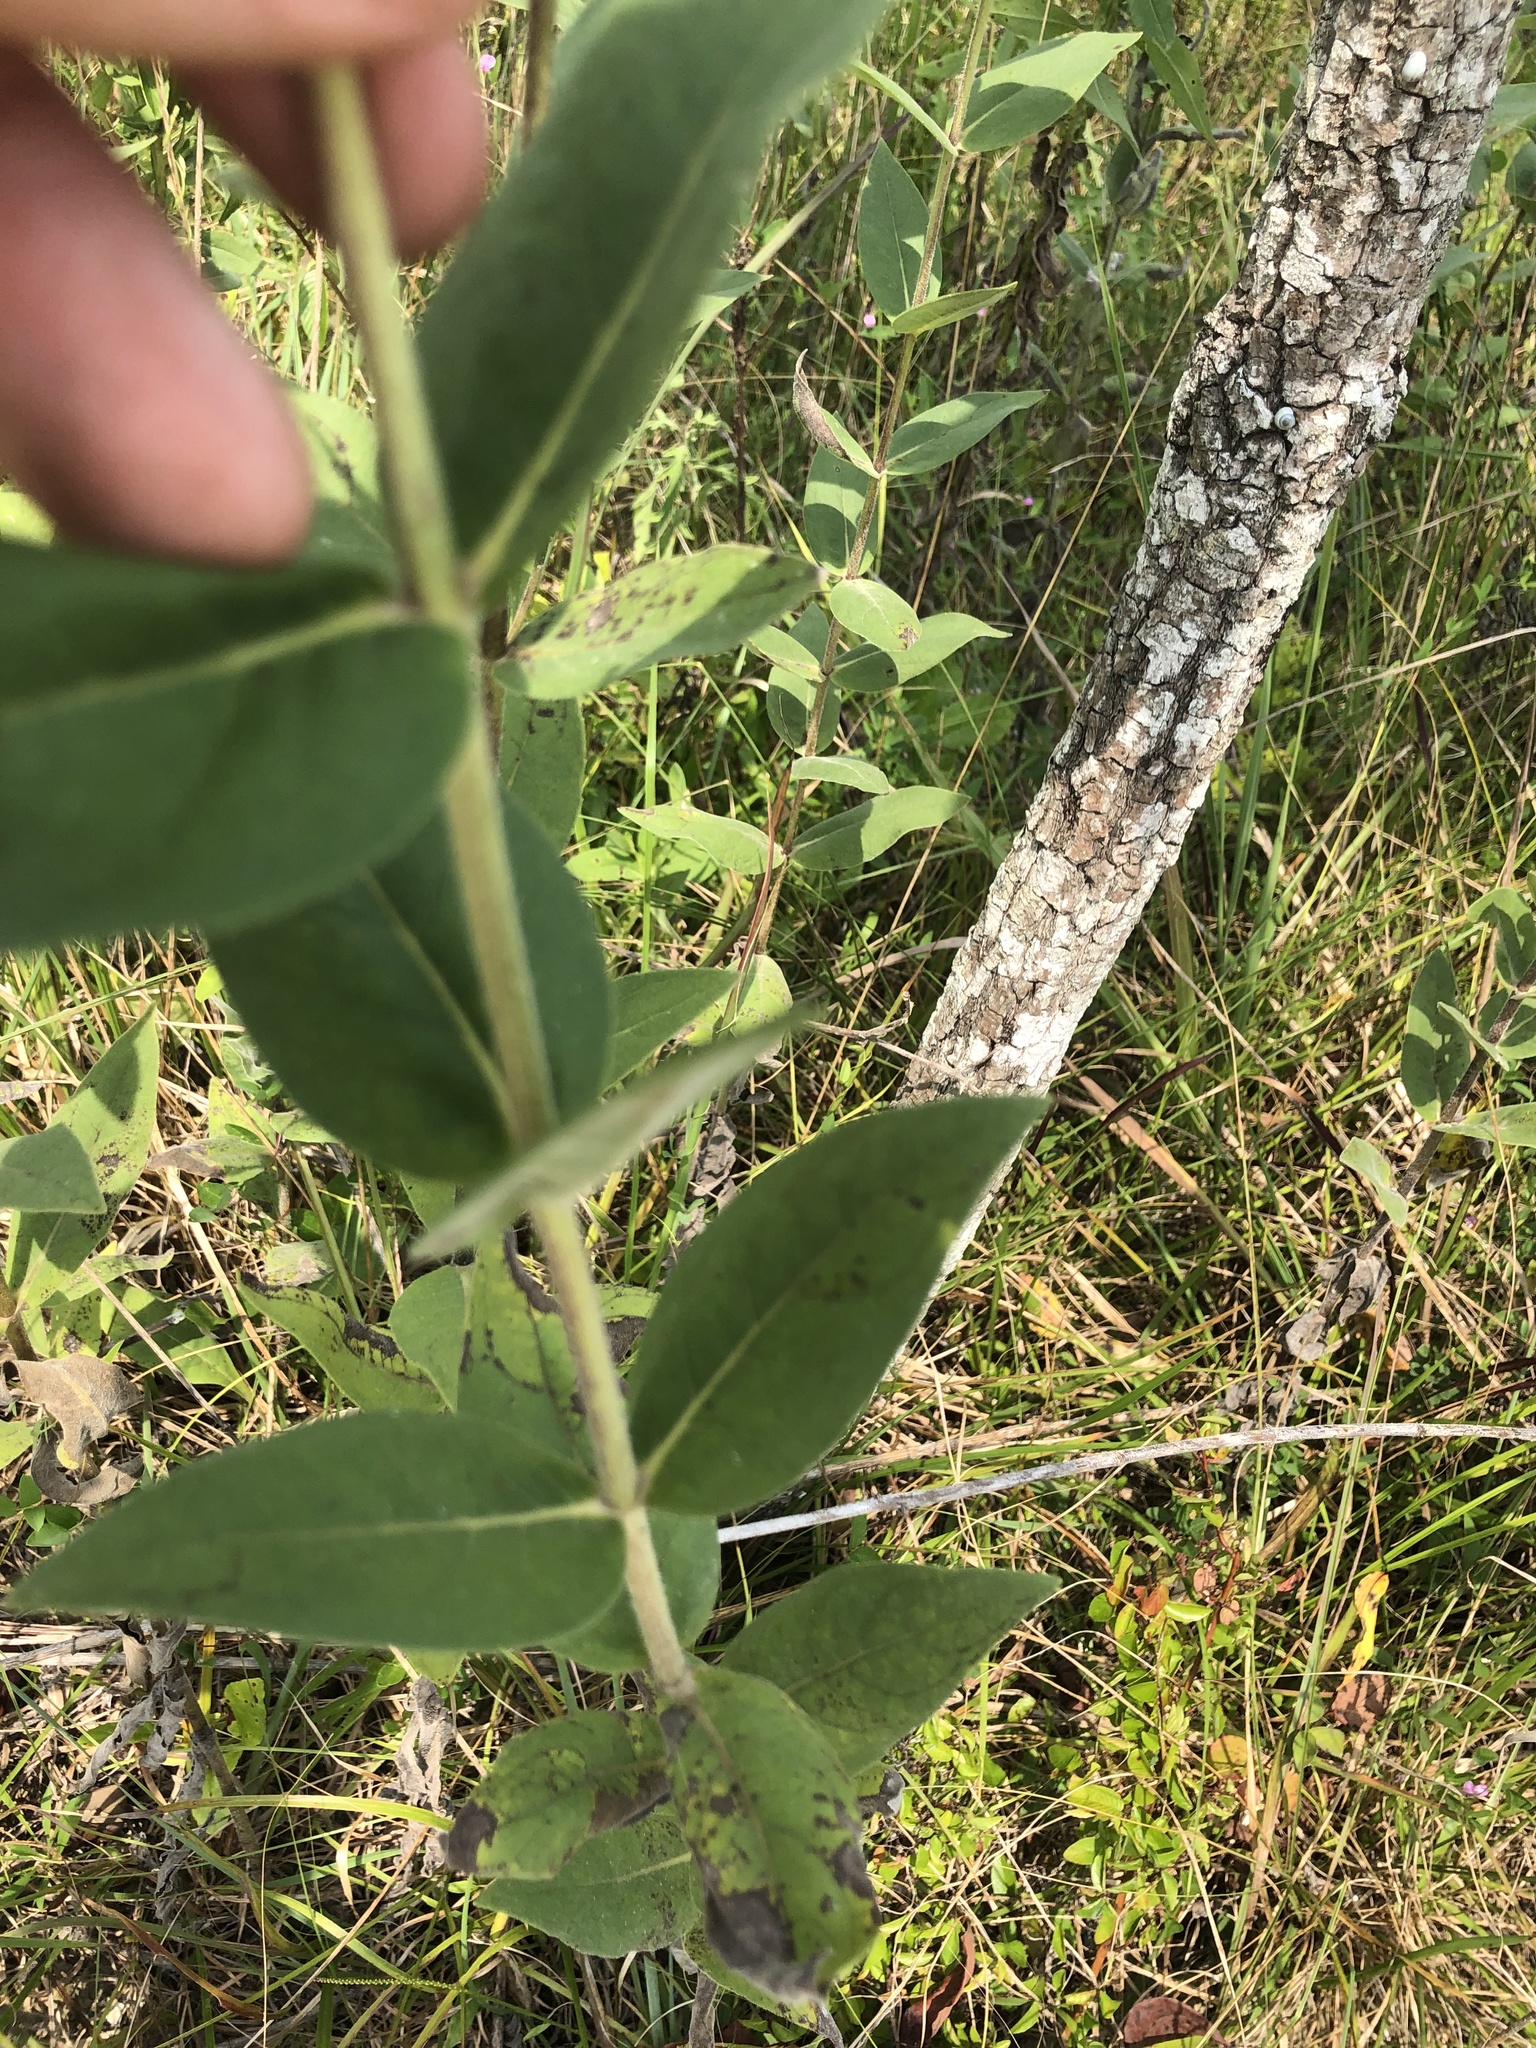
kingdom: Plantae
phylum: Tracheophyta
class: Magnoliopsida
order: Asterales
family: Asteraceae
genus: Silphium
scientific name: Silphium integrifolium
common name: Whole-leaf rosinweed
